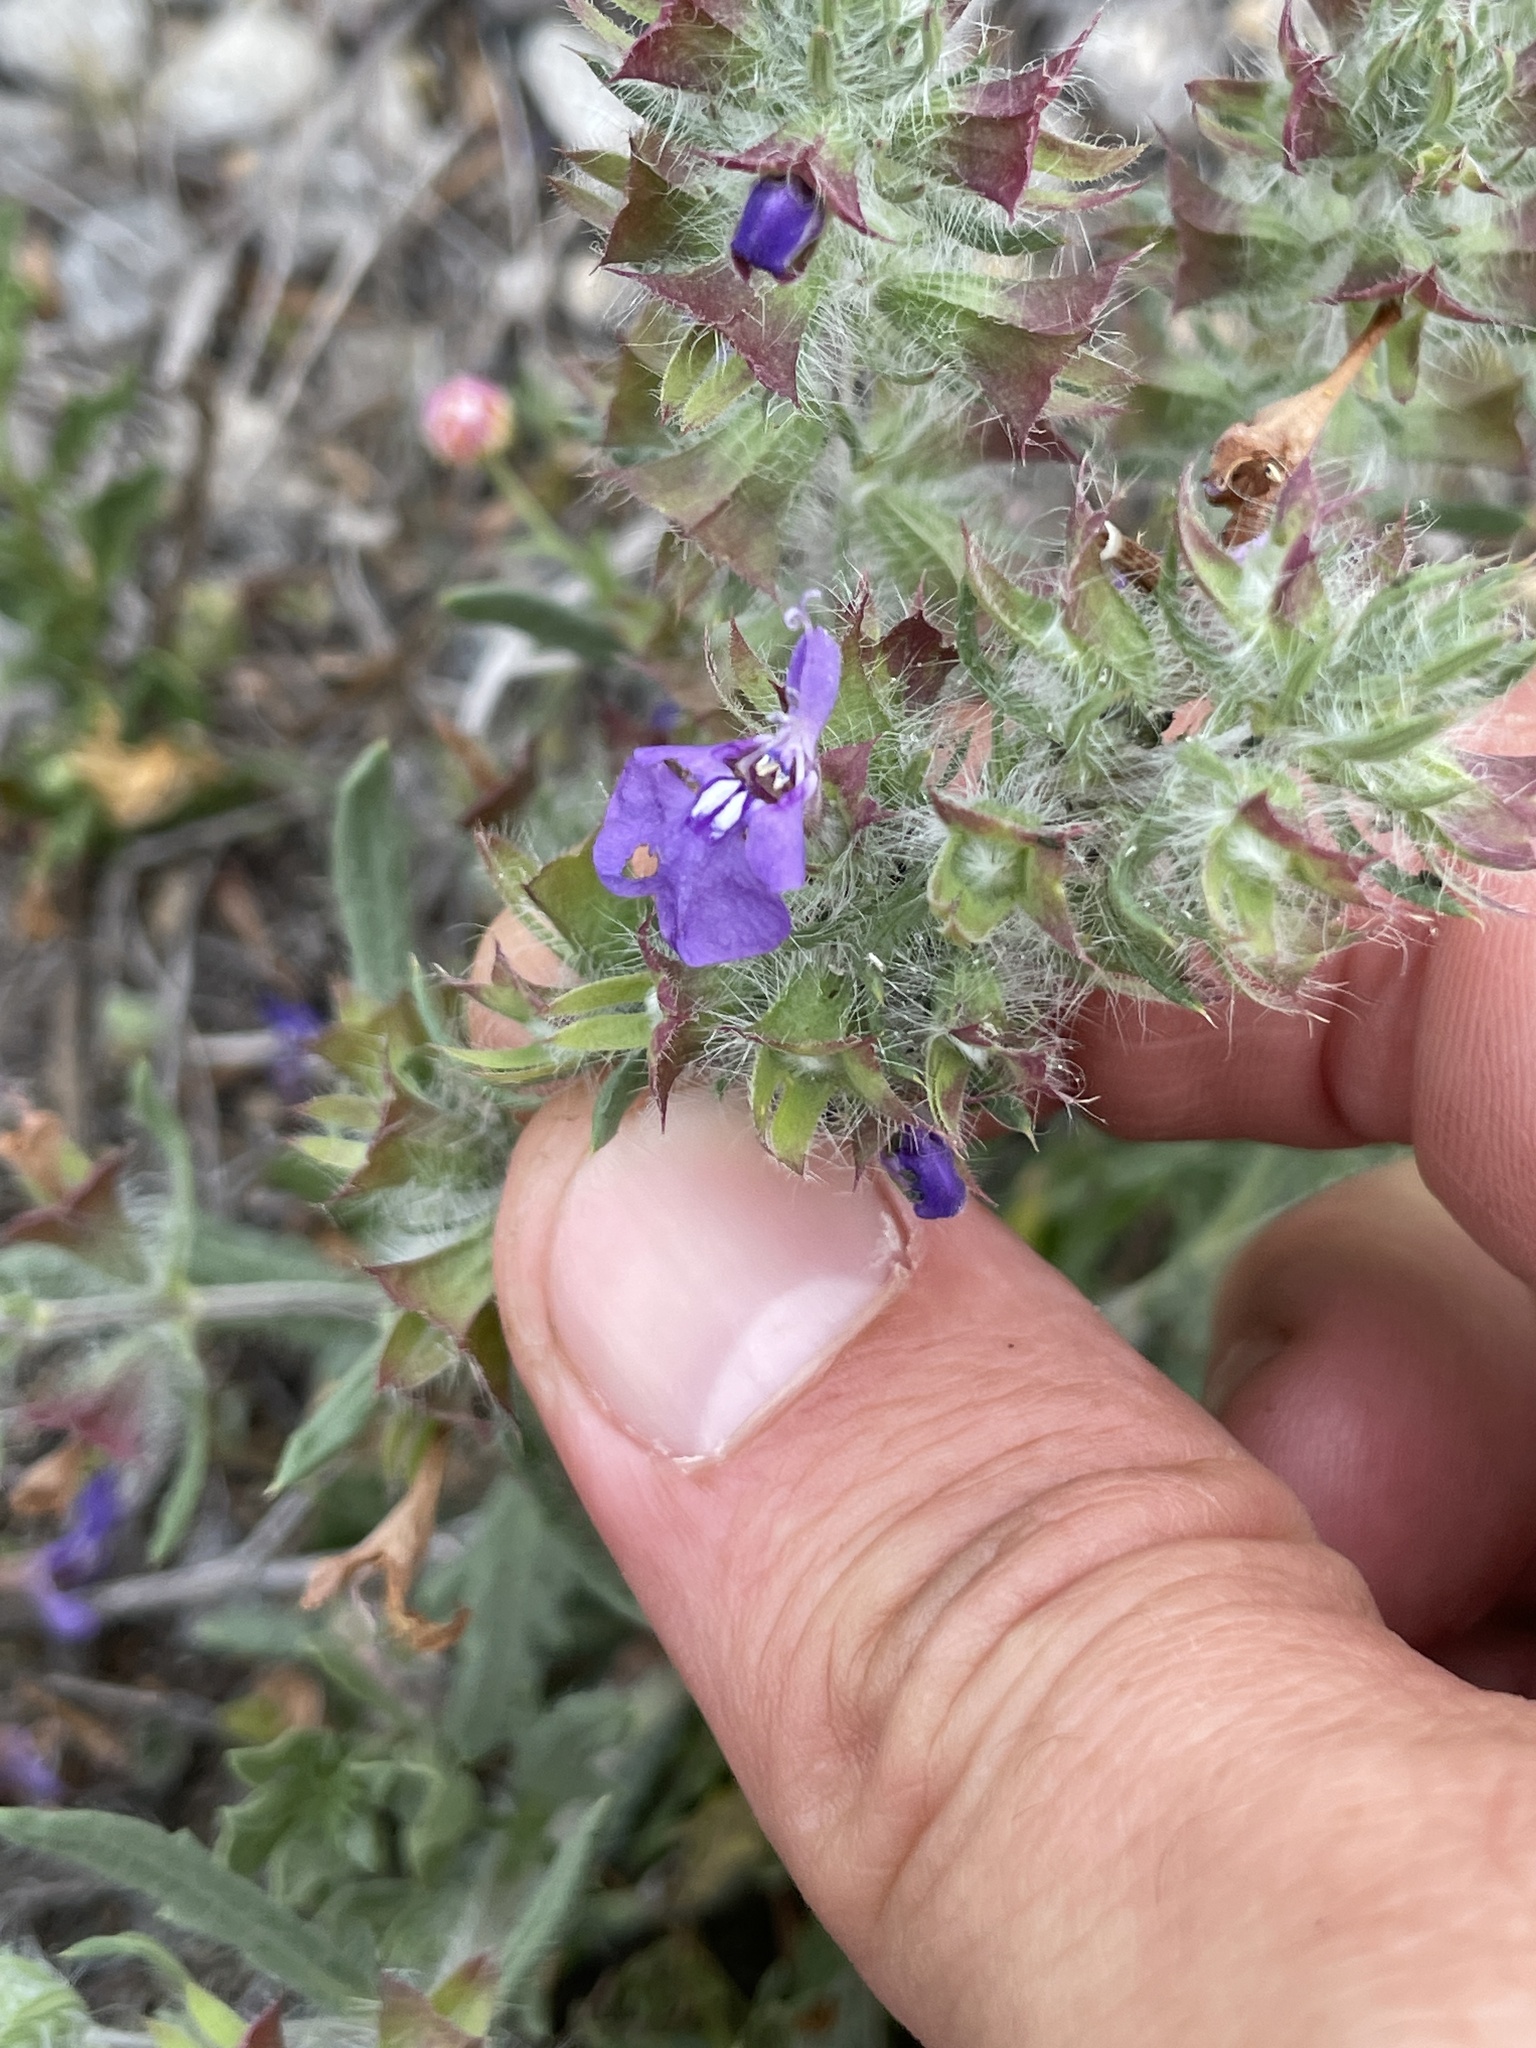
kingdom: Plantae
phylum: Tracheophyta
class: Magnoliopsida
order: Lamiales
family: Lamiaceae
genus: Salvia
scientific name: Salvia texana
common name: Texas sage
